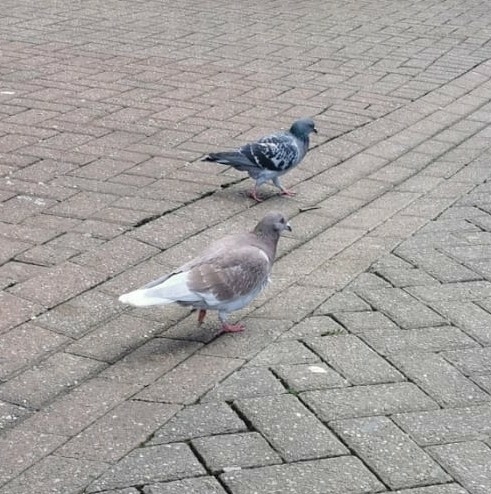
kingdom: Animalia
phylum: Chordata
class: Aves
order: Columbiformes
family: Columbidae
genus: Columba
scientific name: Columba livia
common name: Rock pigeon
